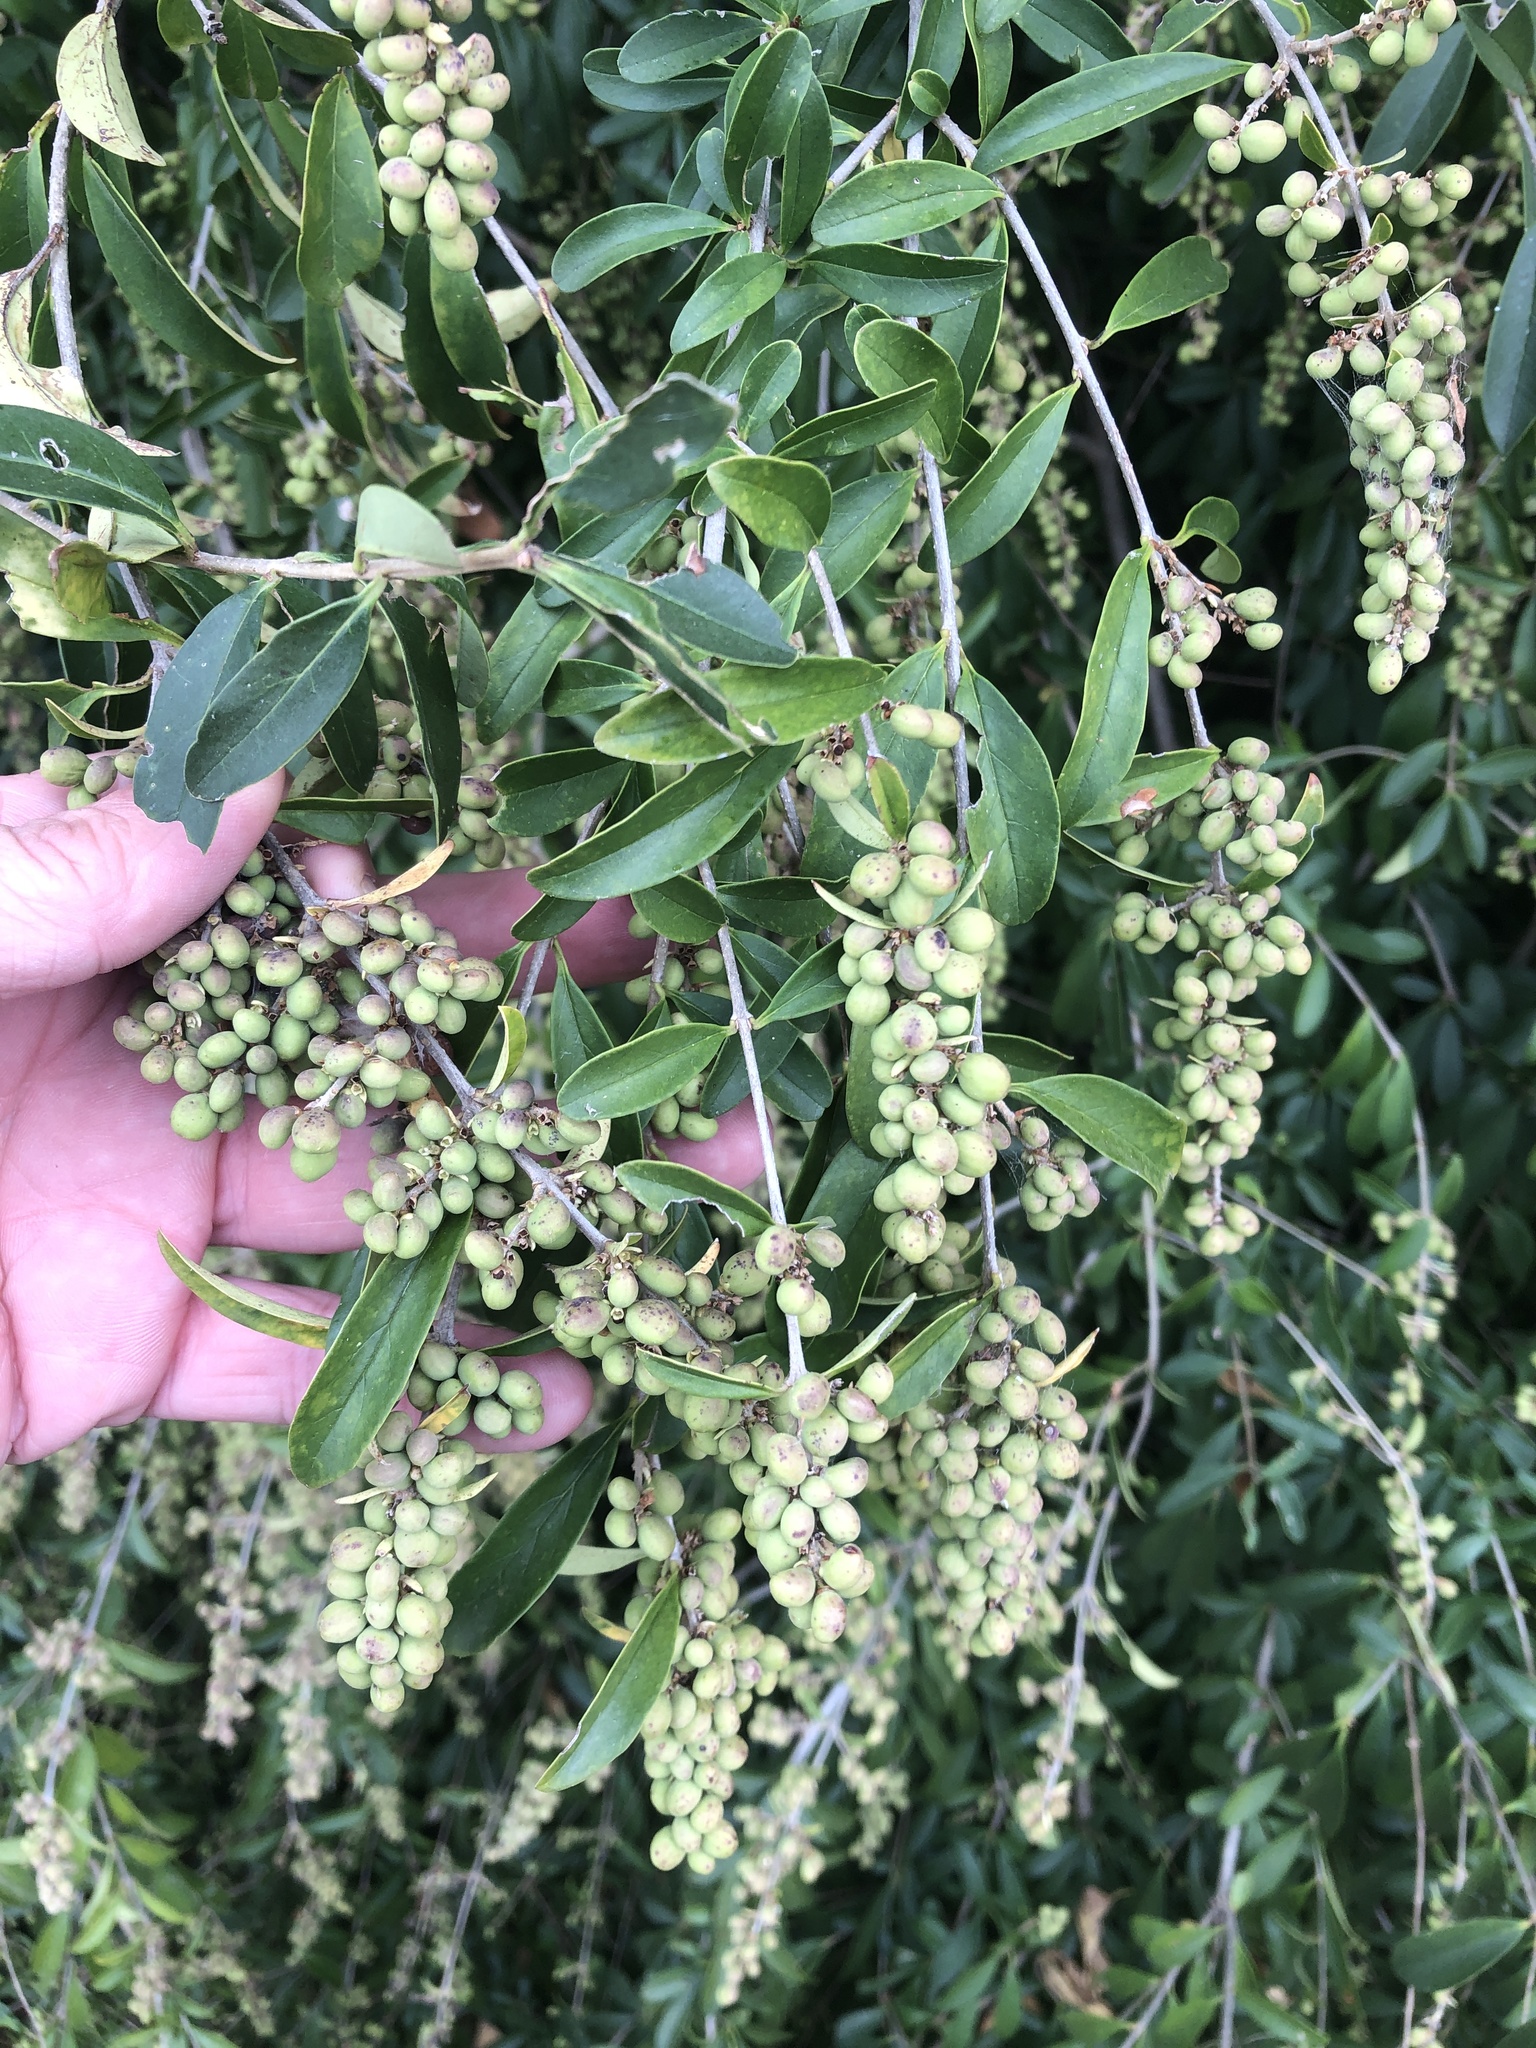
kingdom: Plantae
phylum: Tracheophyta
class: Magnoliopsida
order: Lamiales
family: Oleaceae
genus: Ligustrum
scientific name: Ligustrum quihoui
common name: Waxyleaf privet
